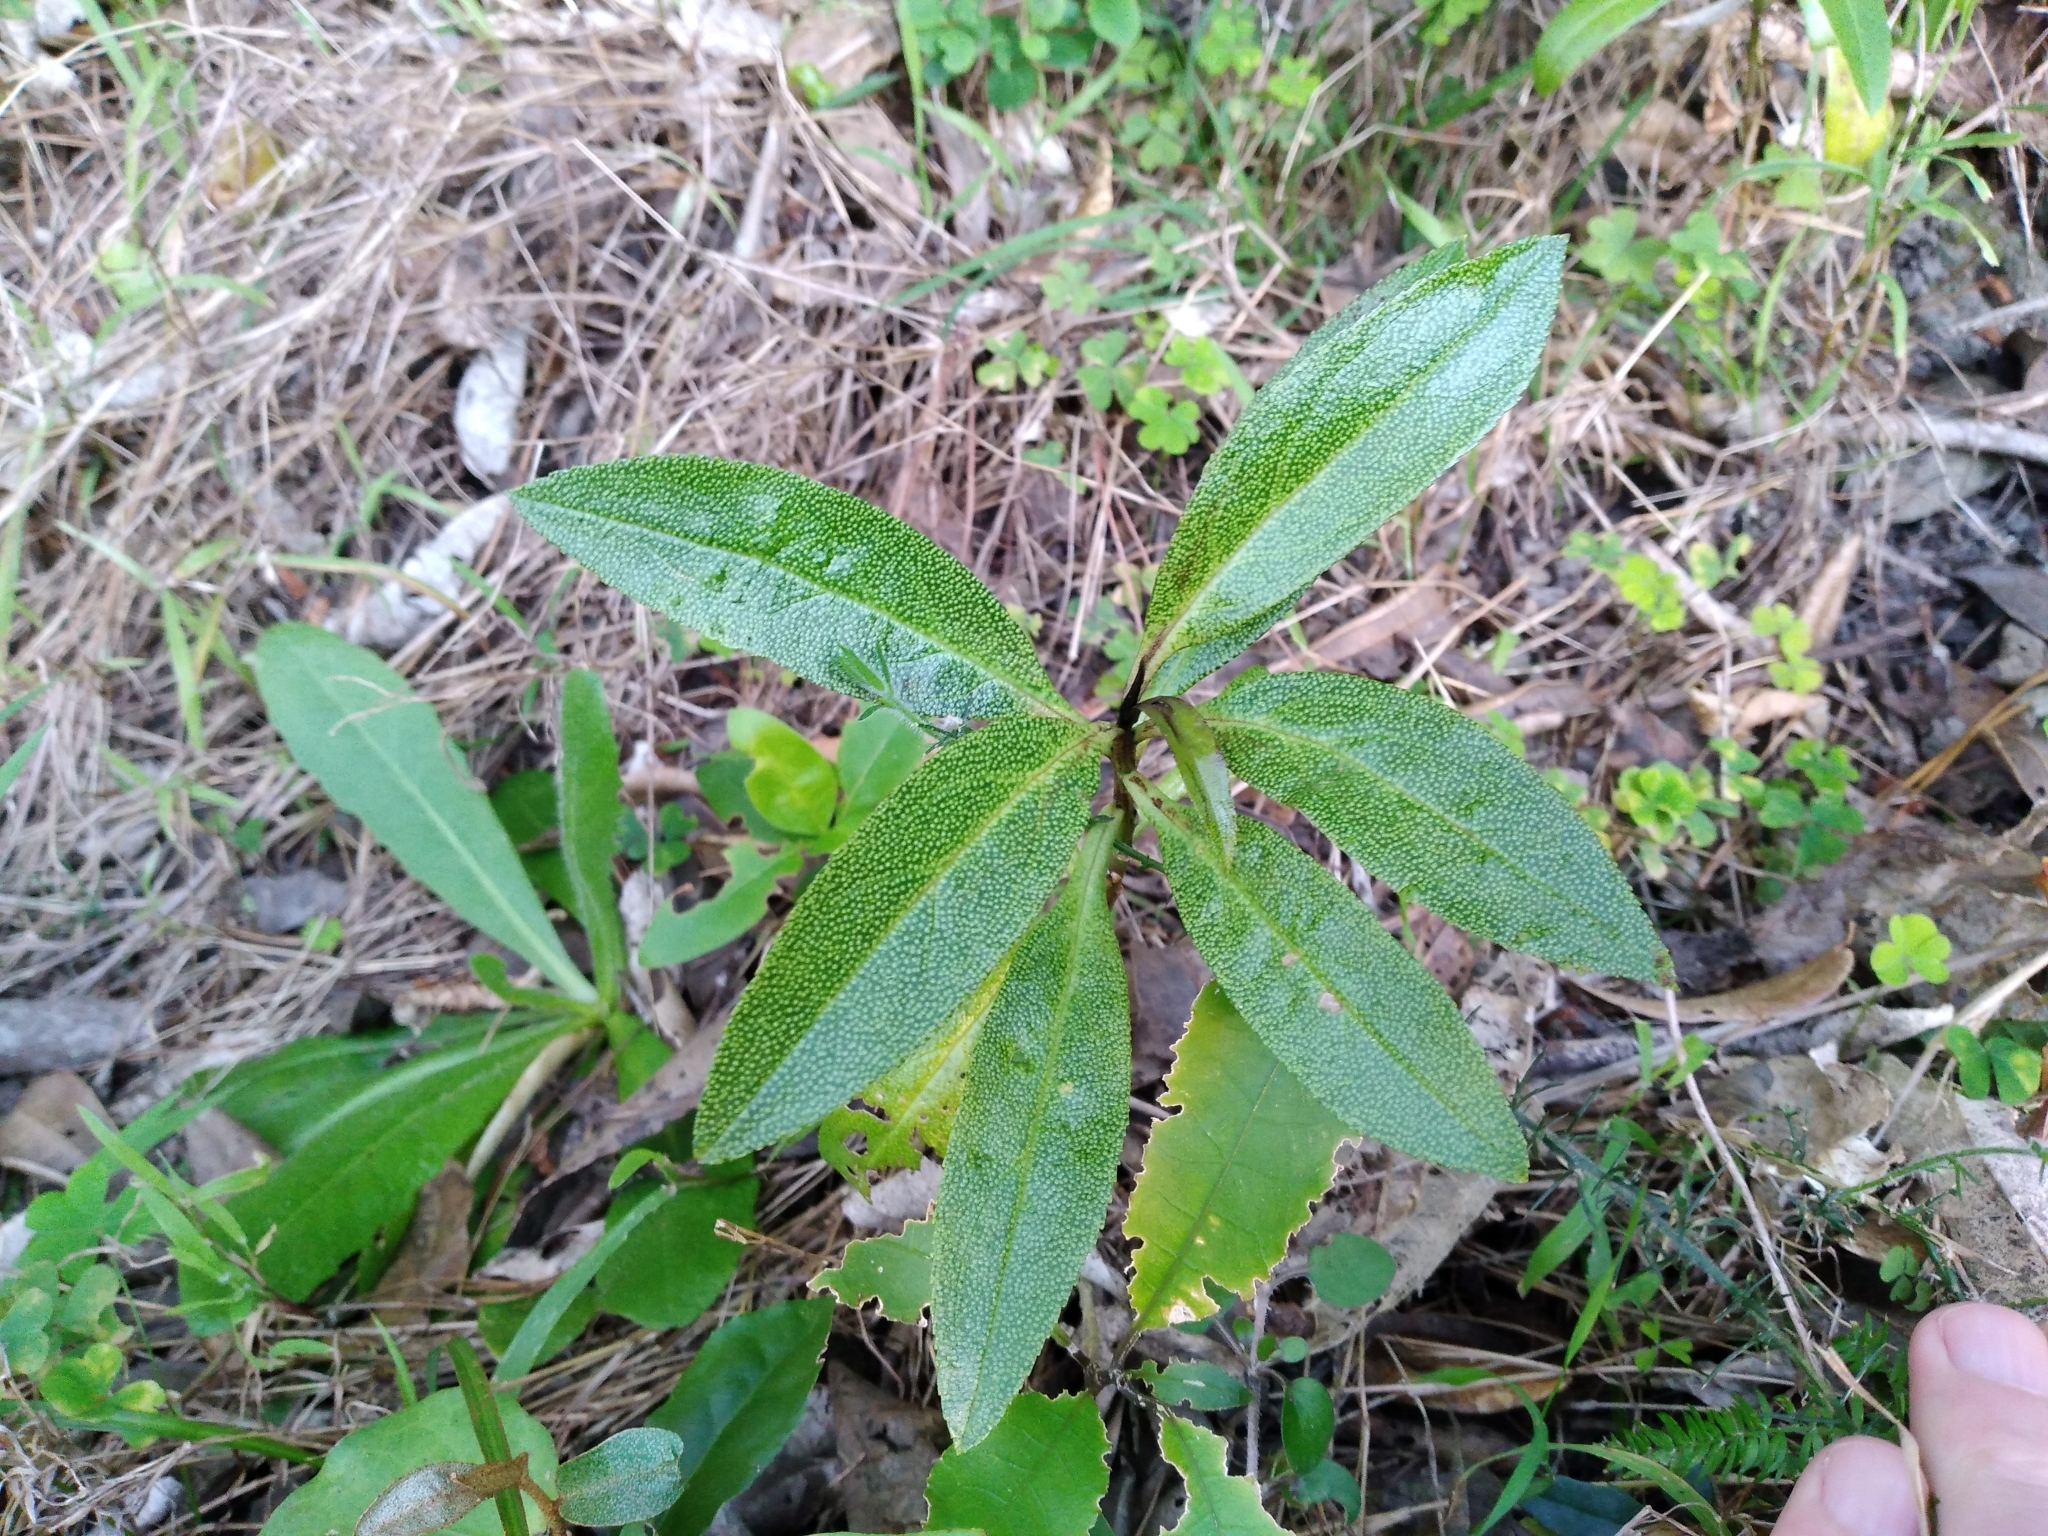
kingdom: Plantae
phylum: Tracheophyta
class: Magnoliopsida
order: Lamiales
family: Scrophulariaceae
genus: Myoporum
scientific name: Myoporum laetum
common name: Ngaio tree
